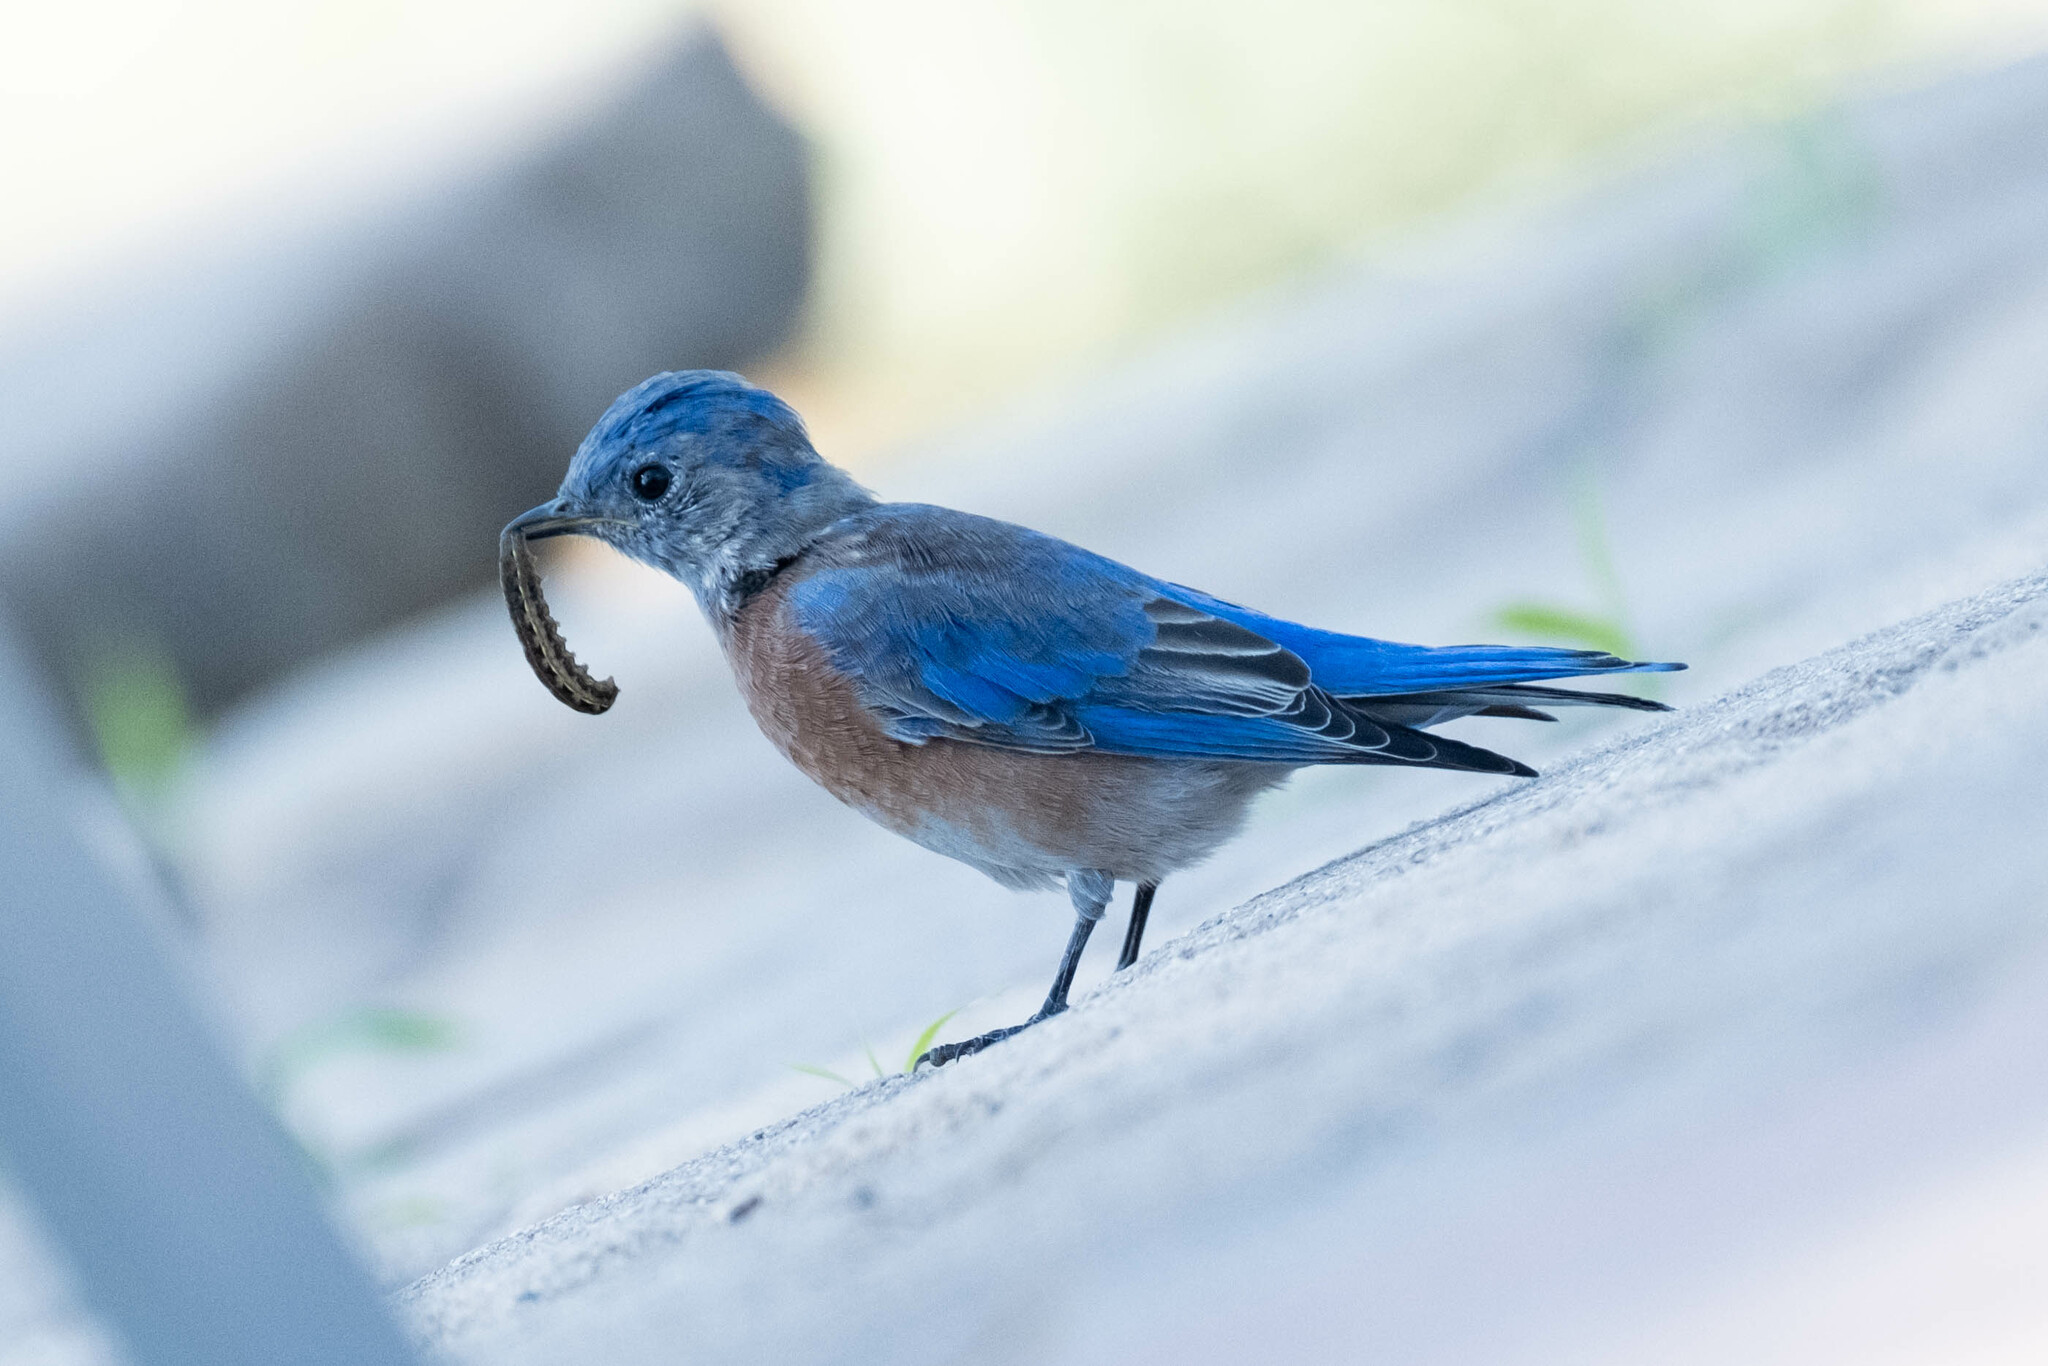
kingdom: Animalia
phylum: Chordata
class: Aves
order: Passeriformes
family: Turdidae
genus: Sialia
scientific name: Sialia mexicana
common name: Western bluebird
